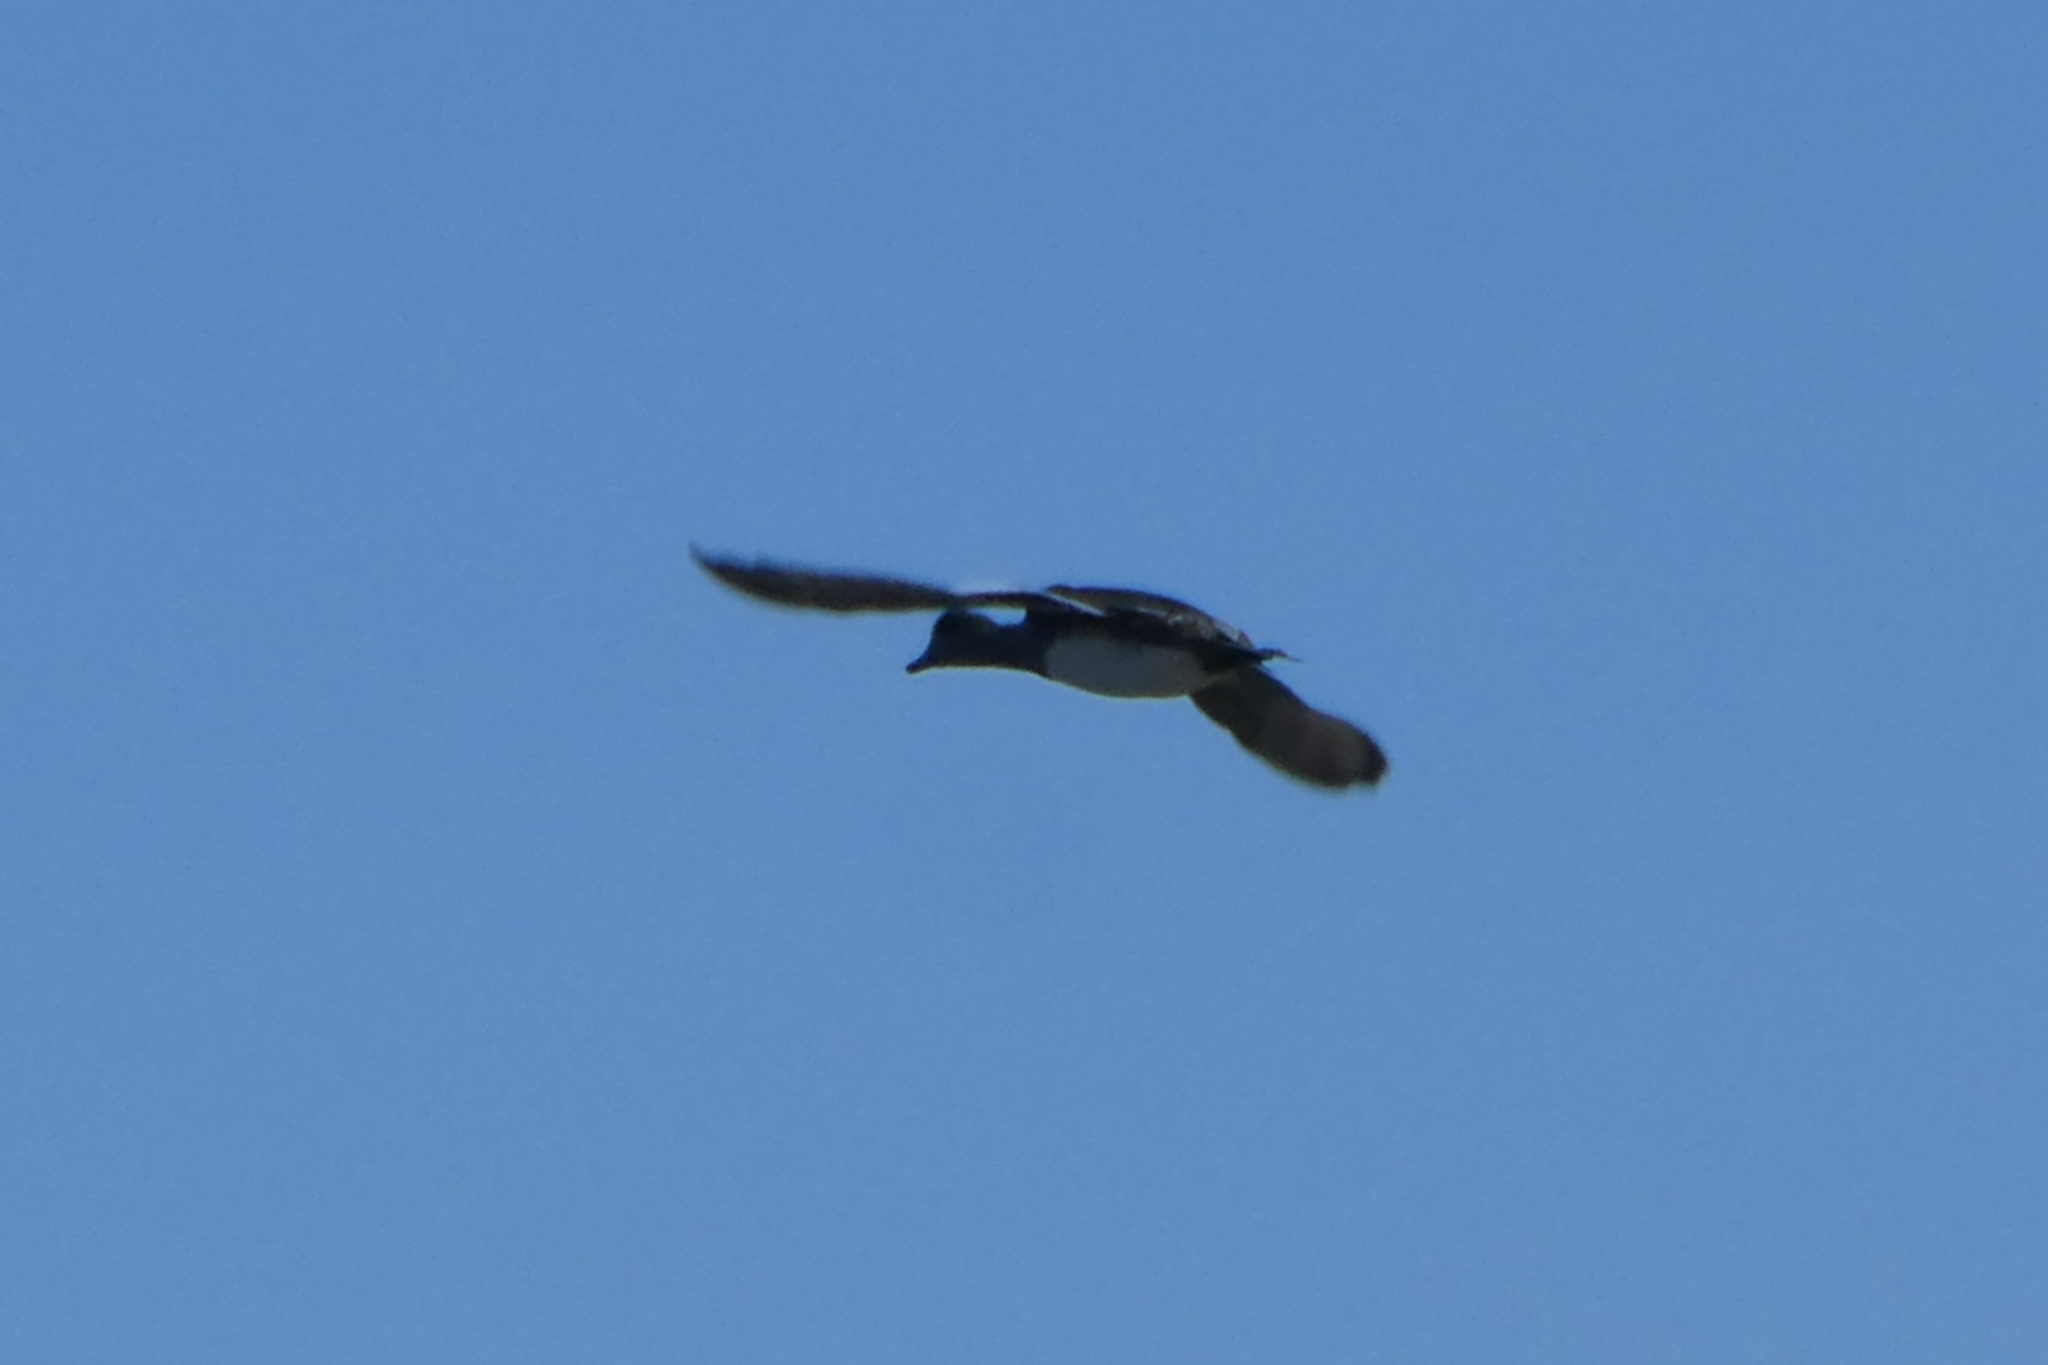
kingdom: Animalia
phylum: Chordata
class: Aves
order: Anseriformes
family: Anatidae
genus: Mareca
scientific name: Mareca americana
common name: American wigeon
